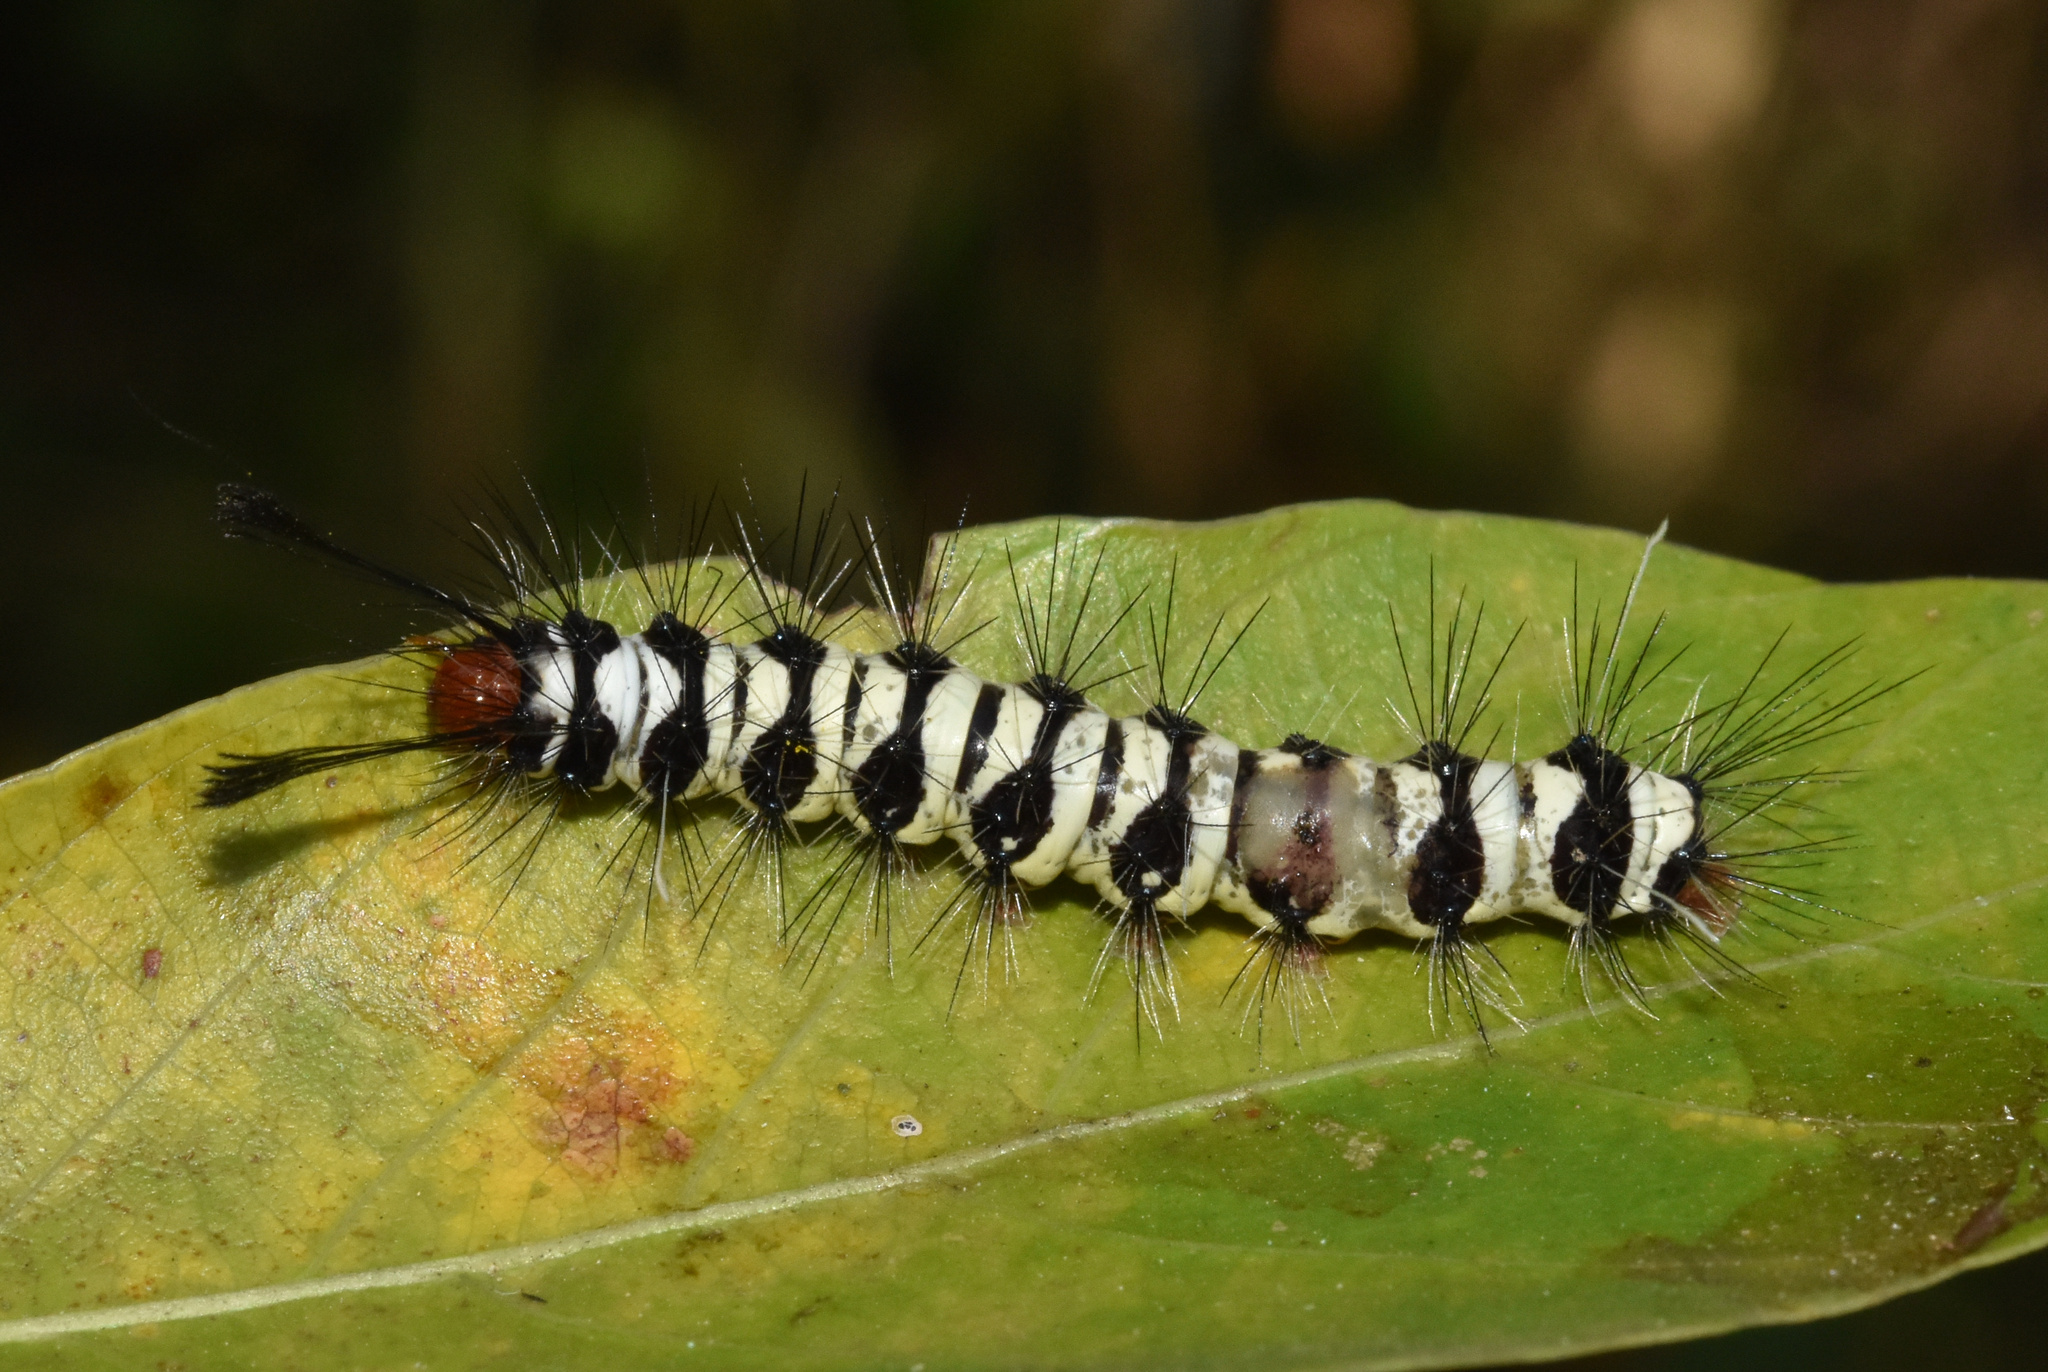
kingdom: Animalia
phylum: Arthropoda
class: Insecta
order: Lepidoptera
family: Erebidae
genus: Nyctemera
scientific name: Nyctemera
